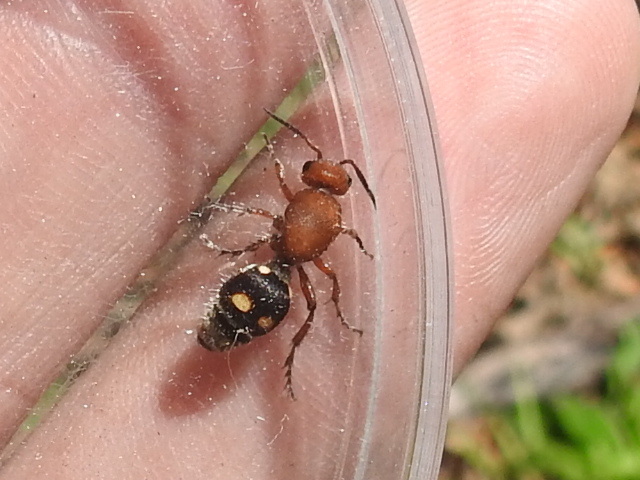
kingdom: Animalia
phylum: Arthropoda
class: Insecta
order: Hymenoptera
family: Mutillidae
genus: Dasymutilla
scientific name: Dasymutilla
